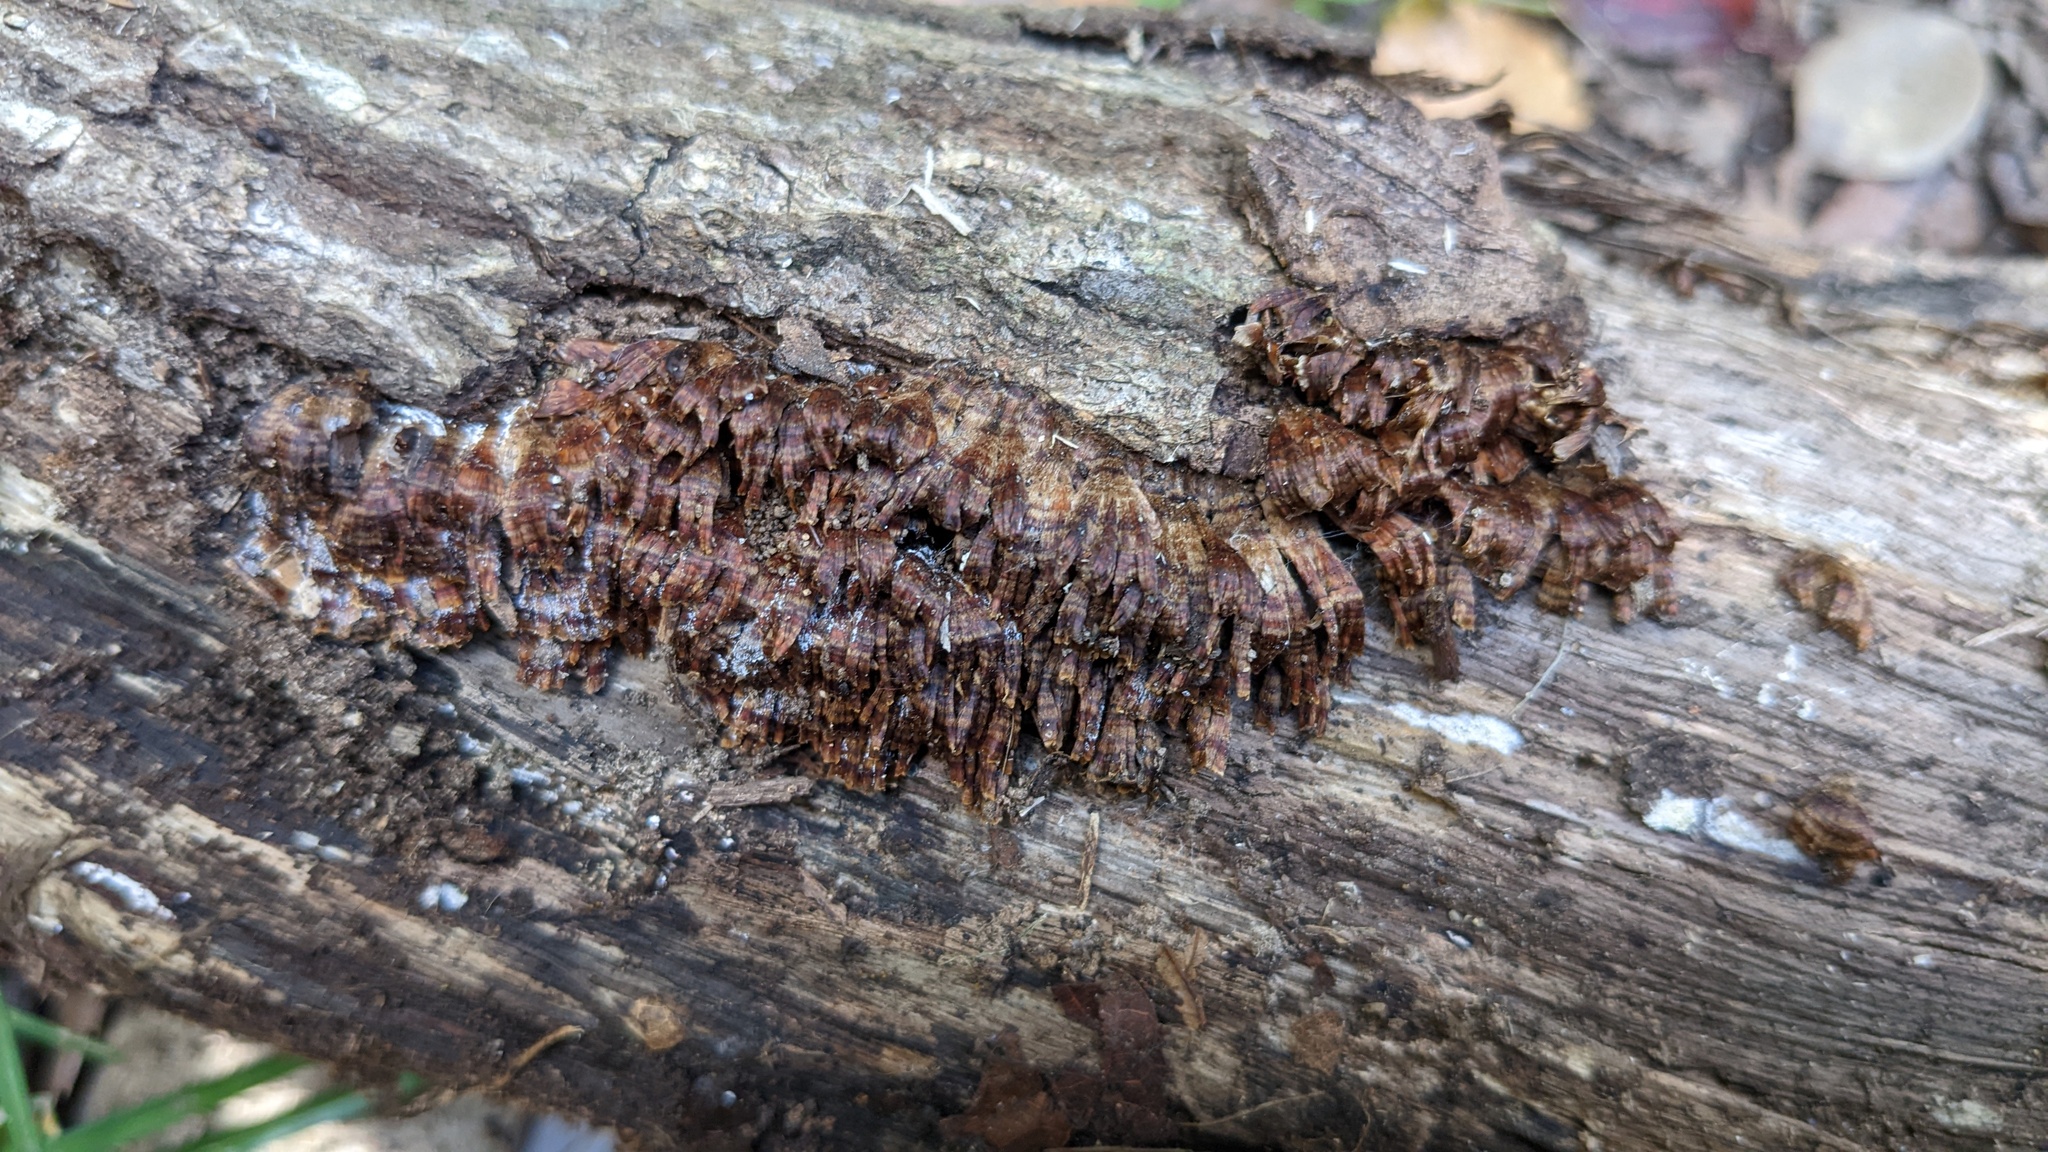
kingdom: Fungi
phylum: Basidiomycota
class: Agaricomycetes
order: Russulales
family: Stereaceae
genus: Xylobolus
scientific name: Xylobolus spectabilis
